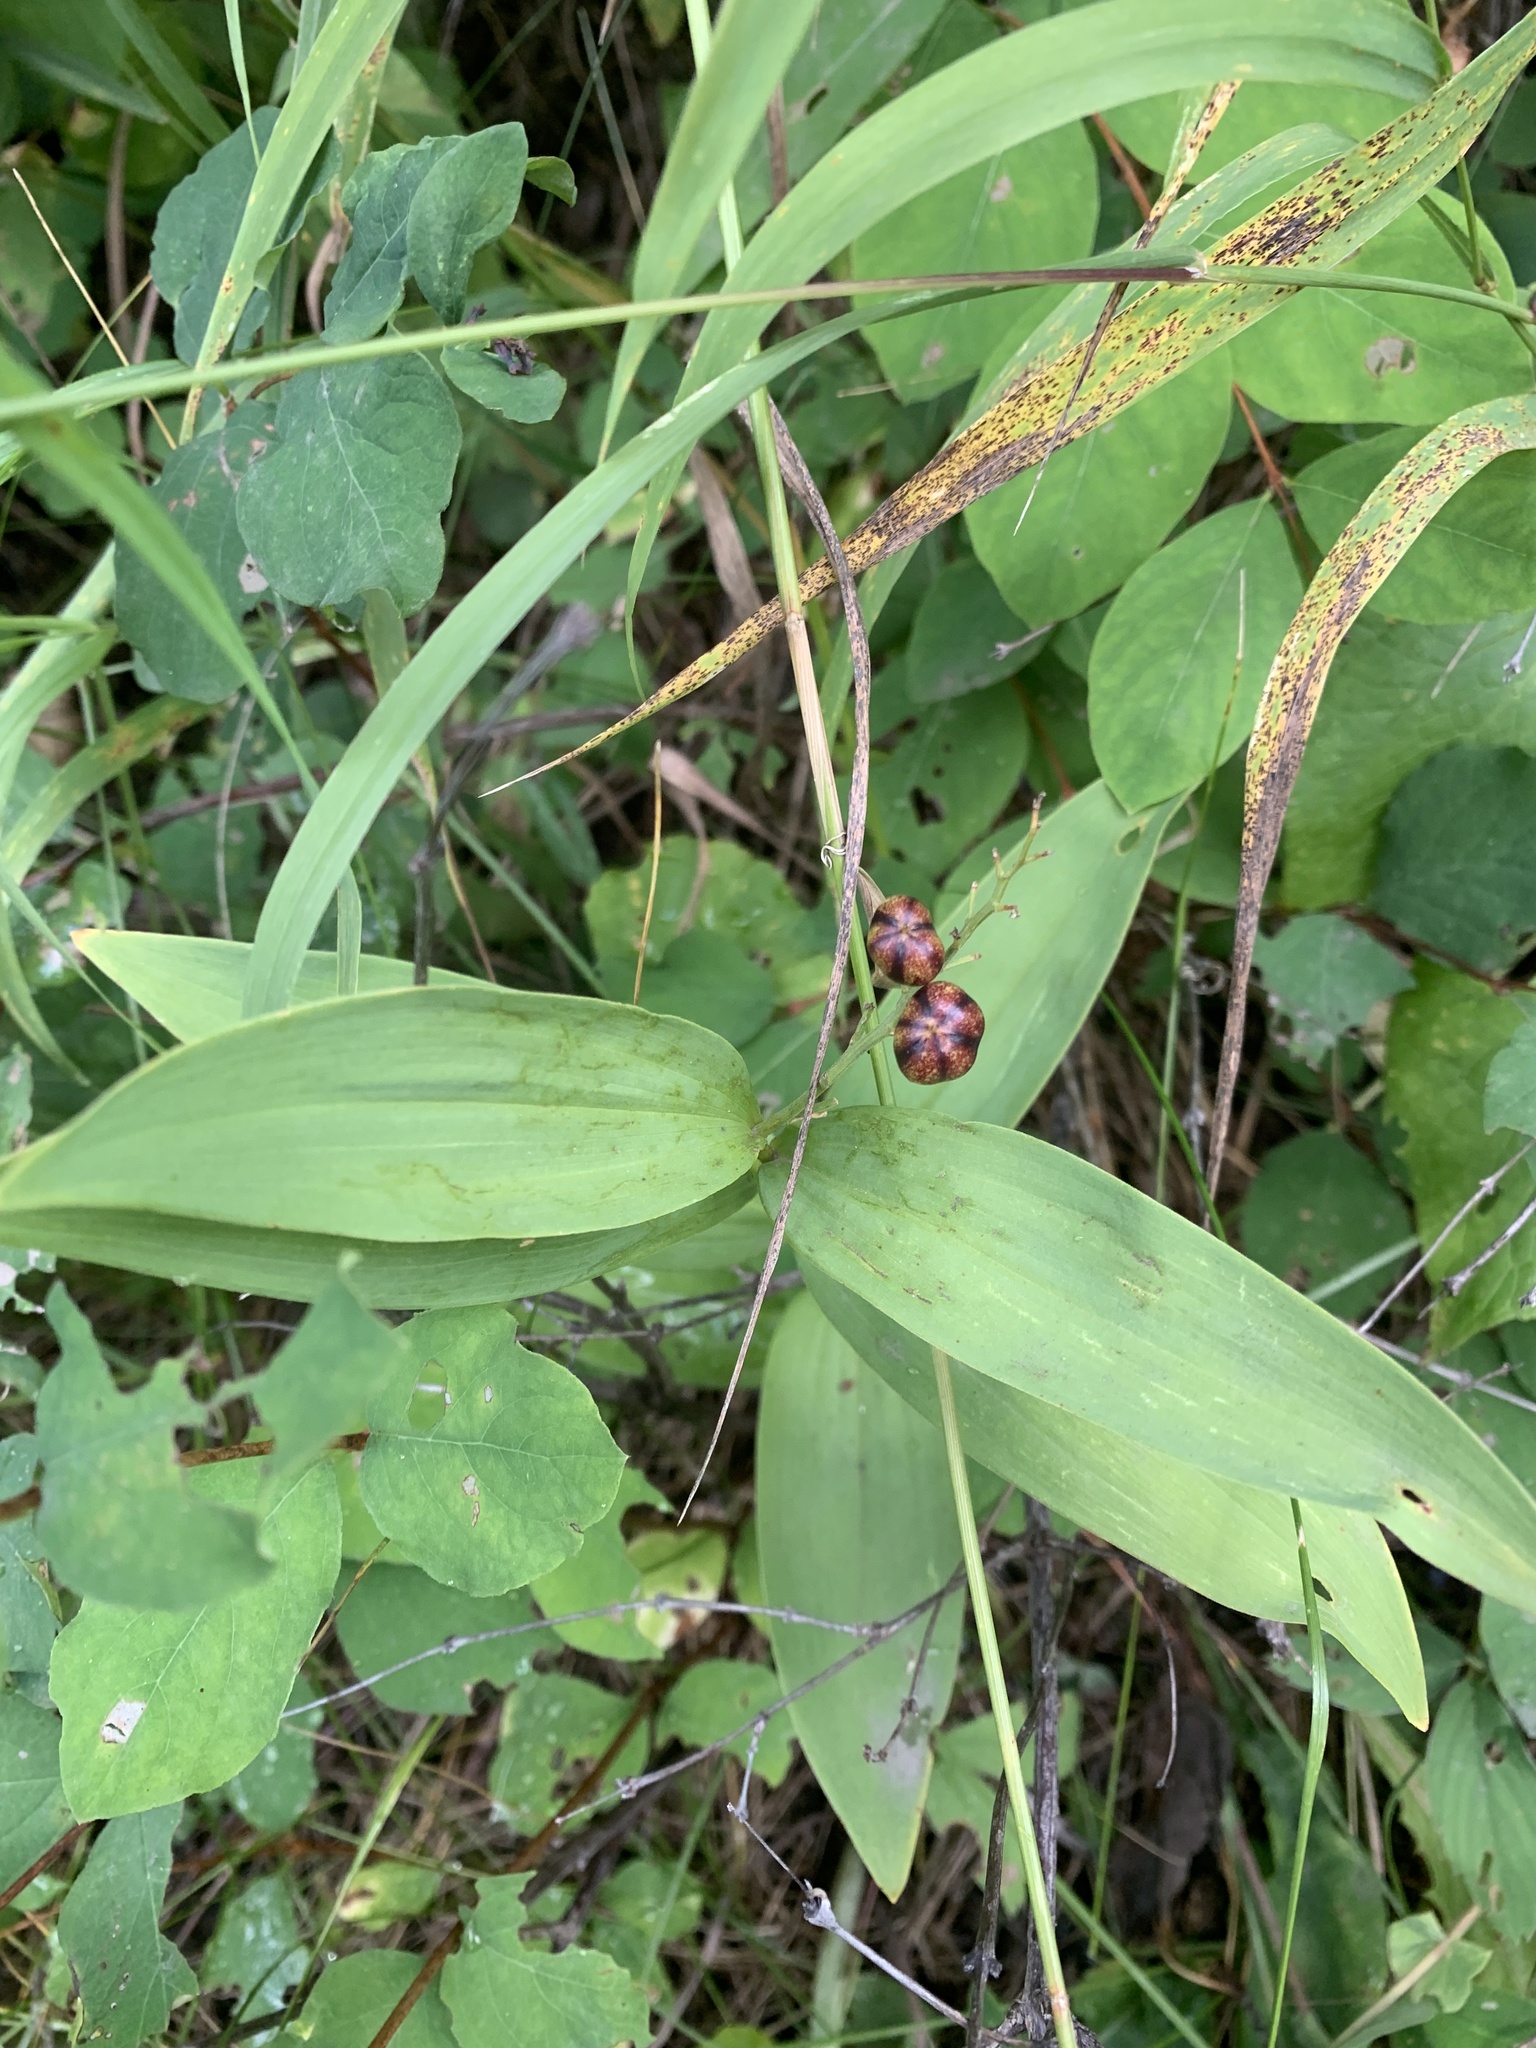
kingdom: Plantae
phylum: Tracheophyta
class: Liliopsida
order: Asparagales
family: Asparagaceae
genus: Maianthemum
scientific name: Maianthemum stellatum
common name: Little false solomon's seal
